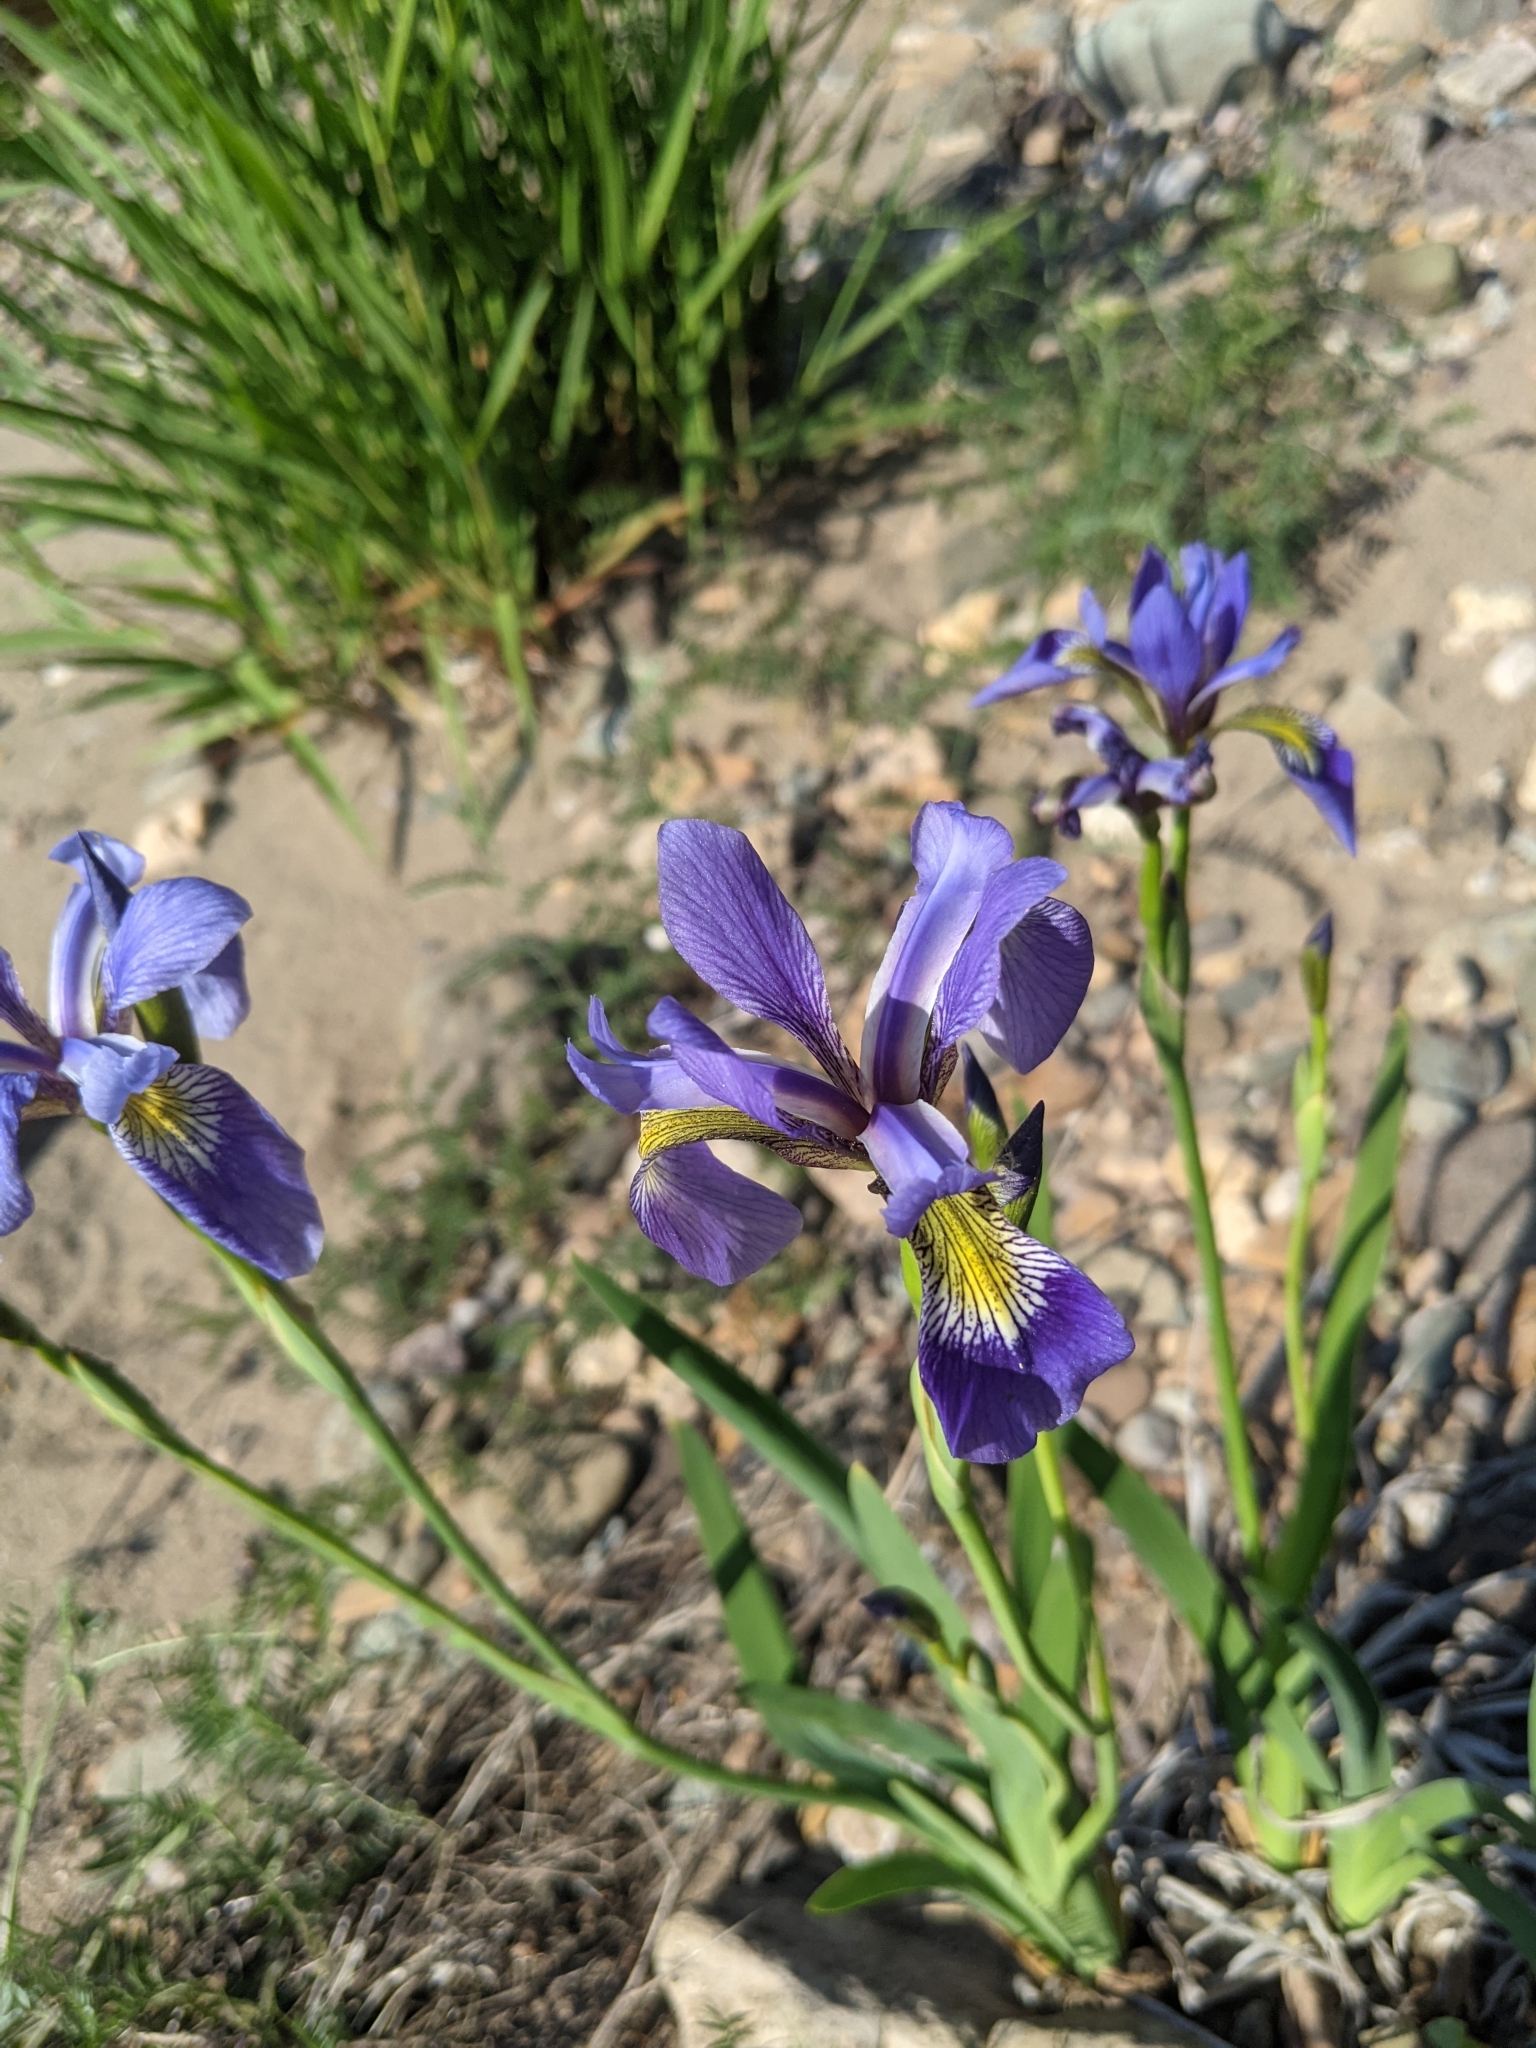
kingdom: Plantae
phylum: Tracheophyta
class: Liliopsida
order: Asparagales
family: Iridaceae
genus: Iris
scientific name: Iris versicolor
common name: Purple iris
